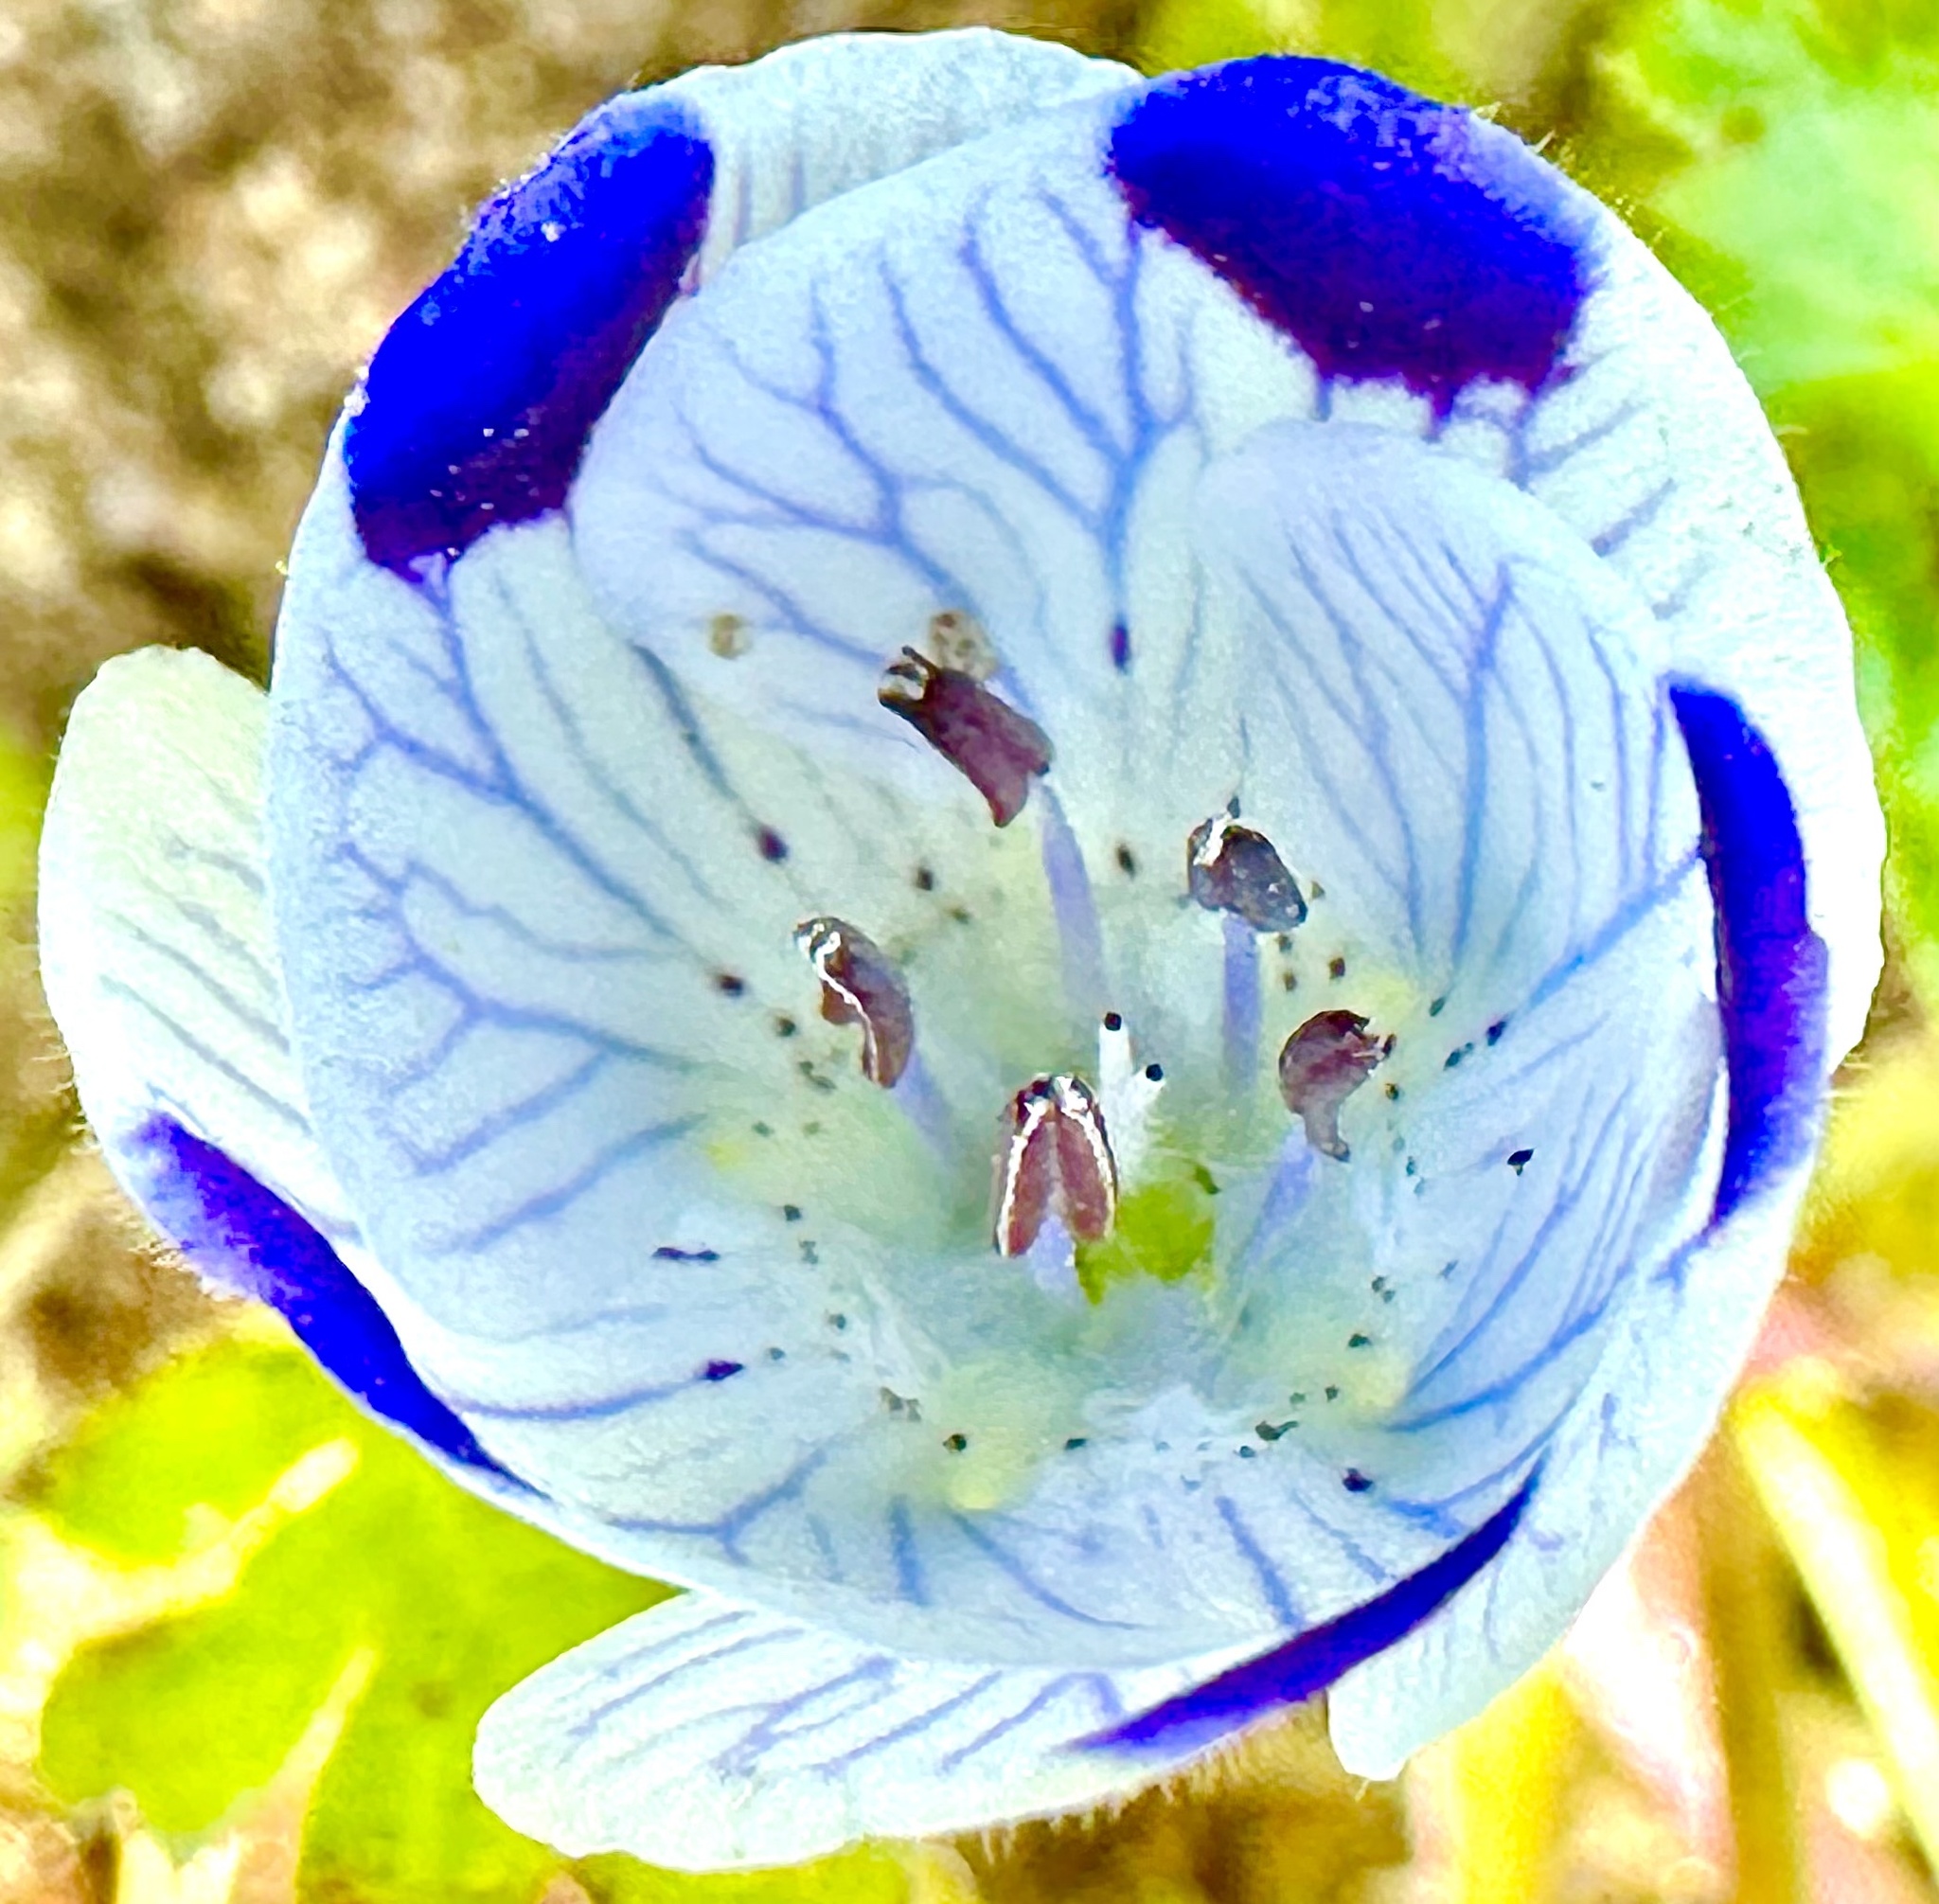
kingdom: Plantae
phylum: Tracheophyta
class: Magnoliopsida
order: Boraginales
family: Hydrophyllaceae
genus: Nemophila
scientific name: Nemophila maculata
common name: Fivespot
